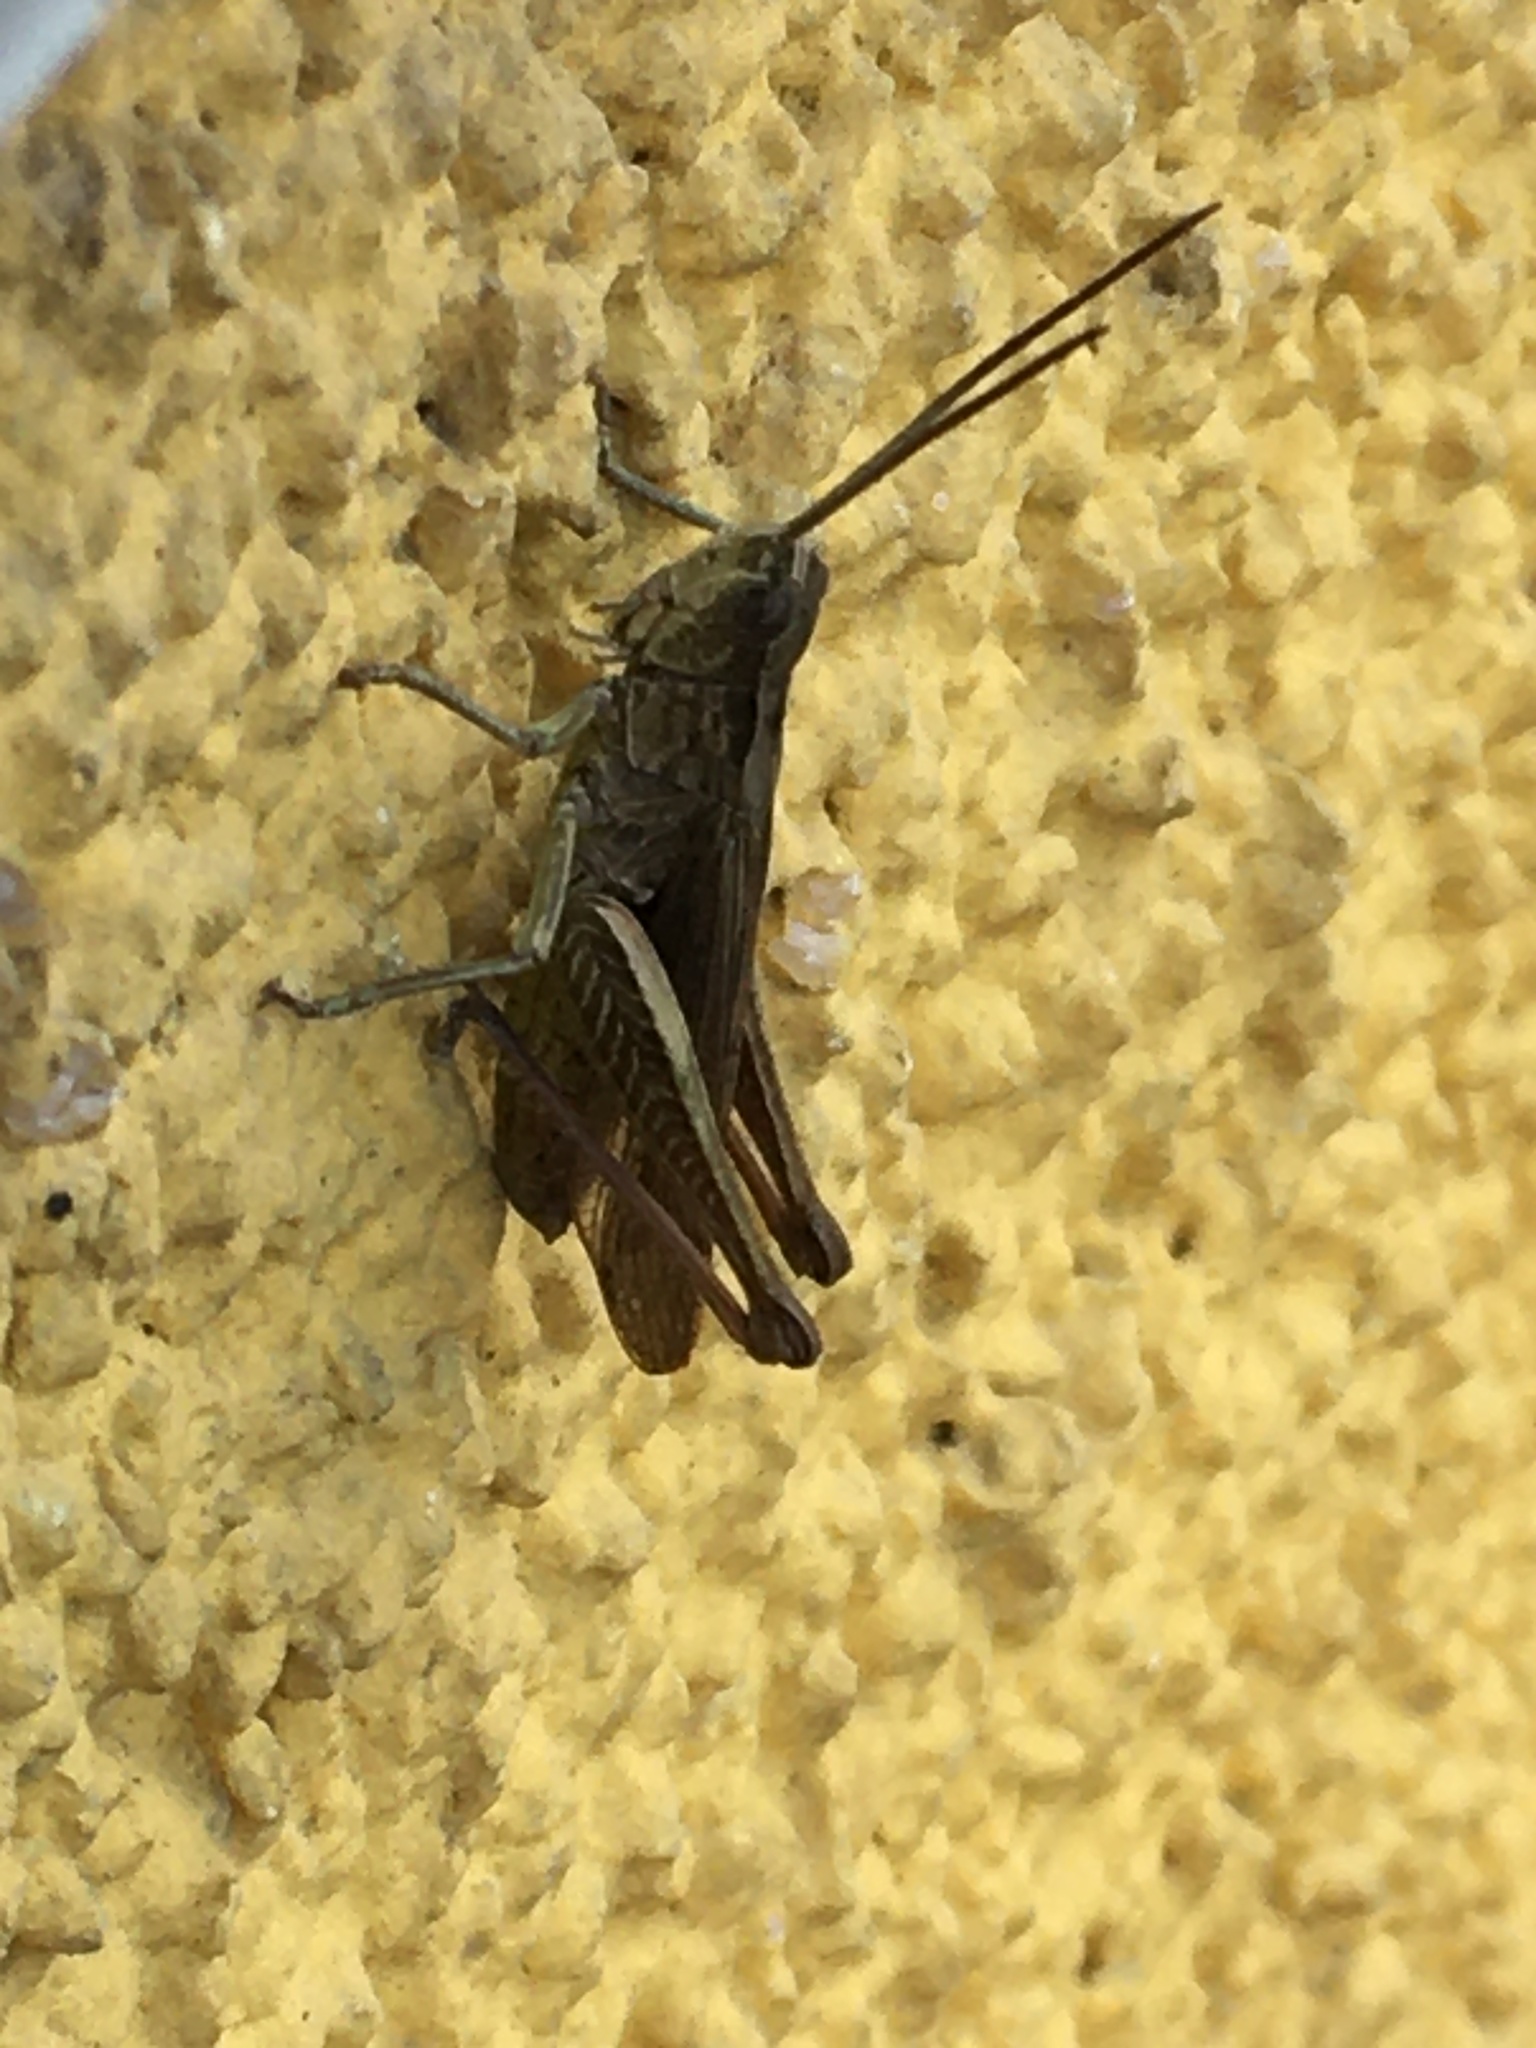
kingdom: Animalia
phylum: Arthropoda
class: Insecta
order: Orthoptera
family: Acrididae
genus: Chorthippus
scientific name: Chorthippus biguttulus
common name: Bow-winged grasshopper
